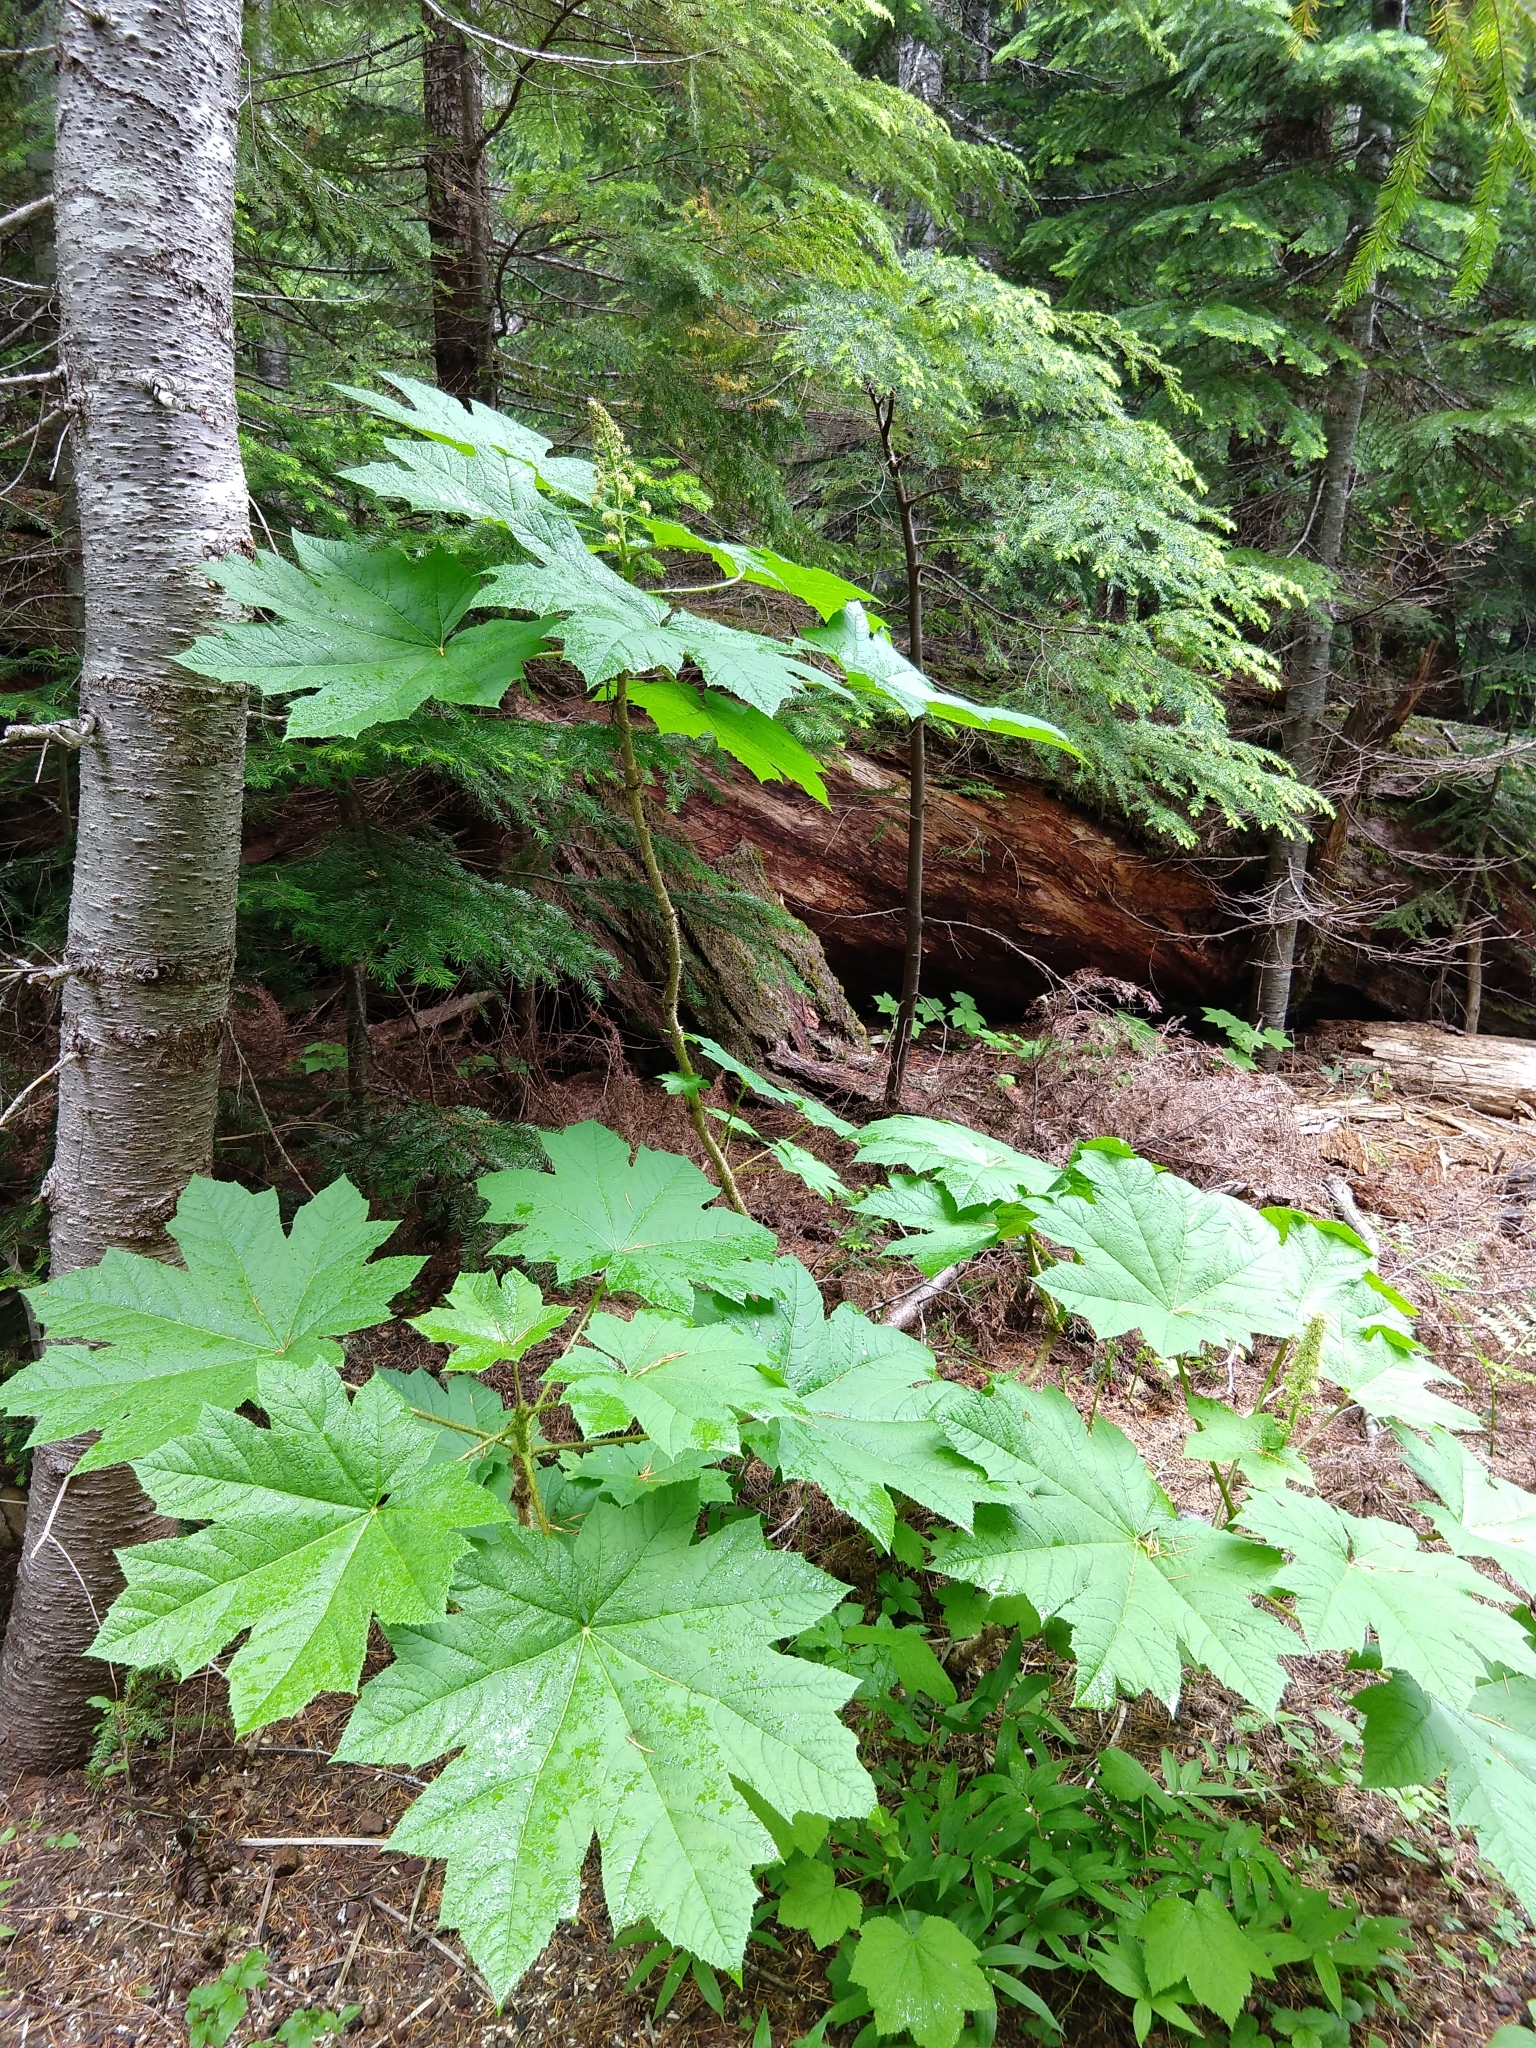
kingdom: Plantae
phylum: Tracheophyta
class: Magnoliopsida
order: Apiales
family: Araliaceae
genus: Oplopanax
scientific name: Oplopanax horridus
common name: Devil's walking-stick
